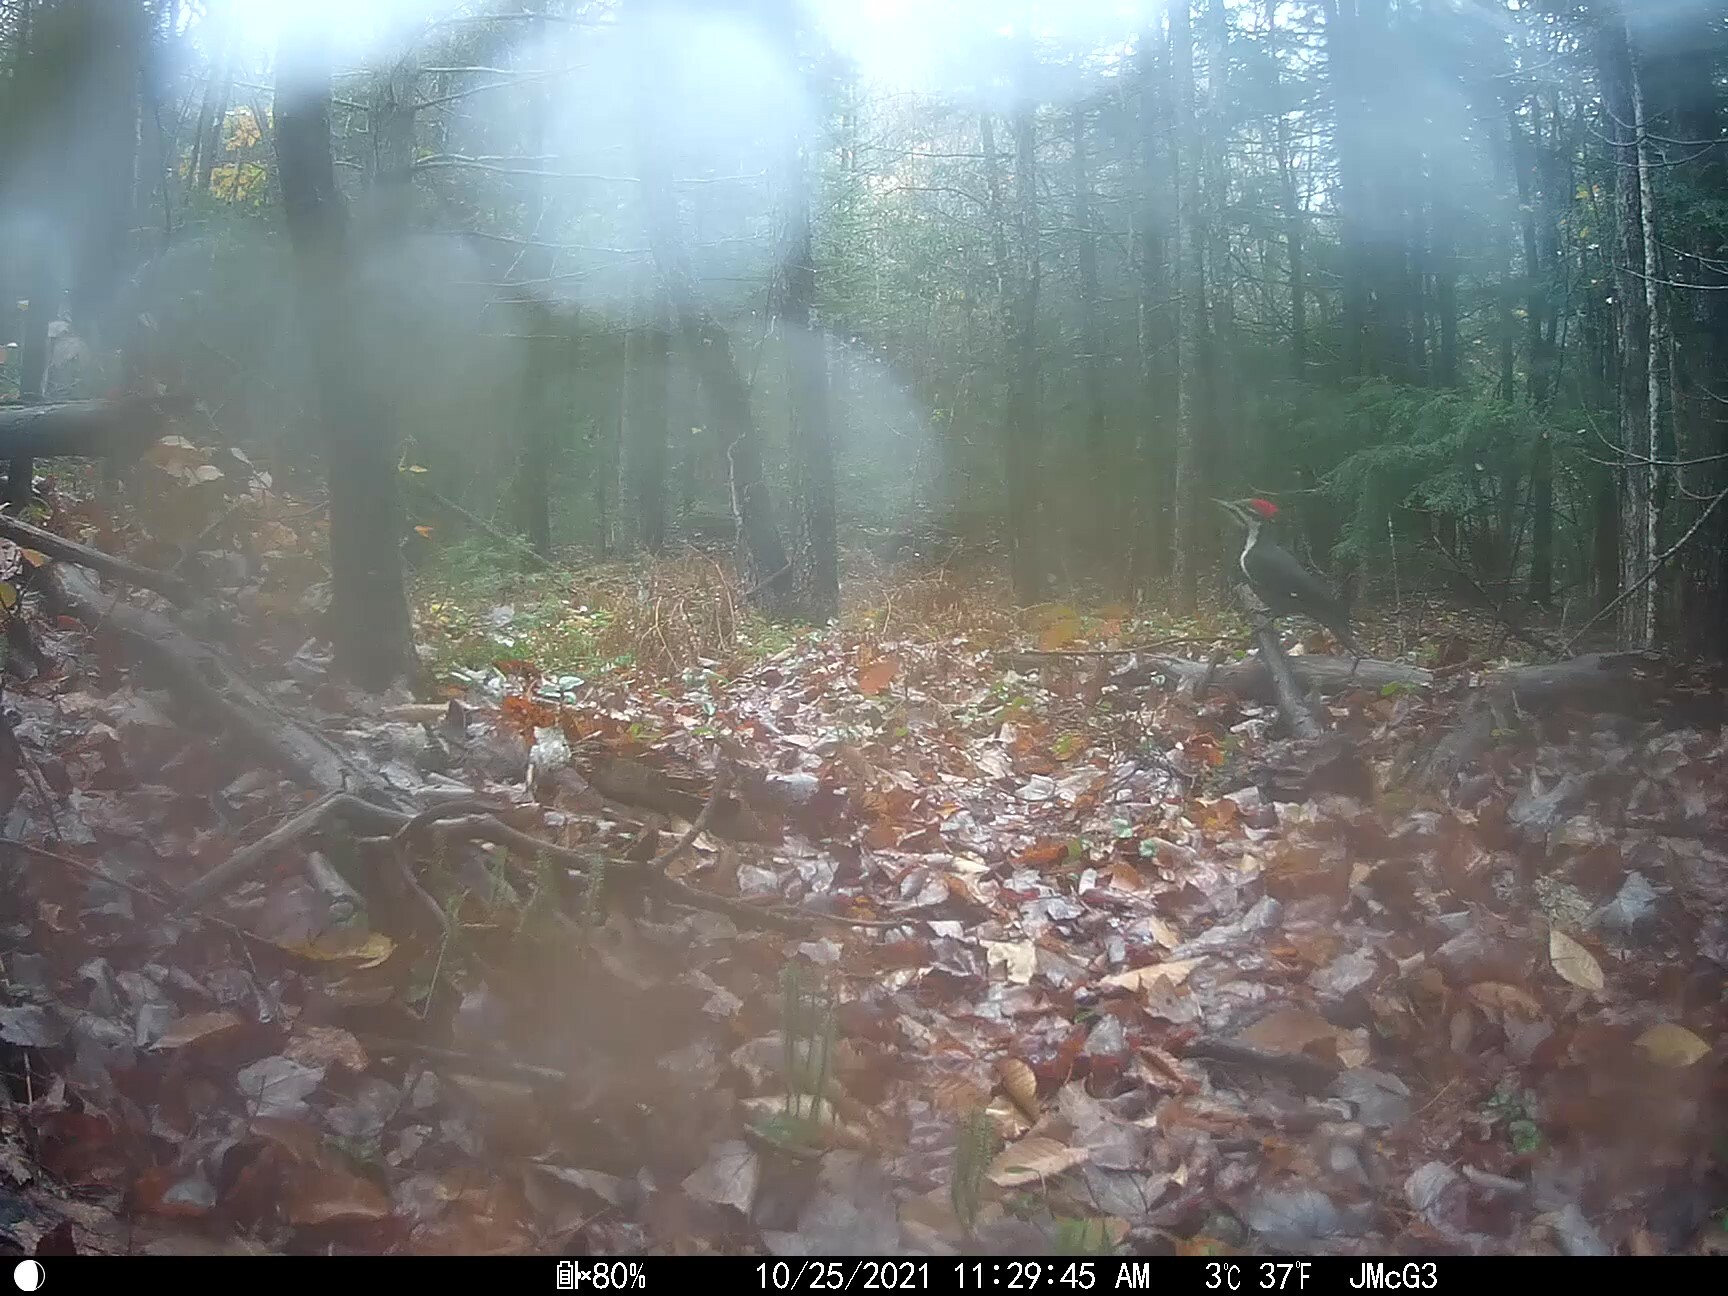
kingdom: Animalia
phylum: Chordata
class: Aves
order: Piciformes
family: Picidae
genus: Dryocopus
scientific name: Dryocopus pileatus
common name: Pileated woodpecker
